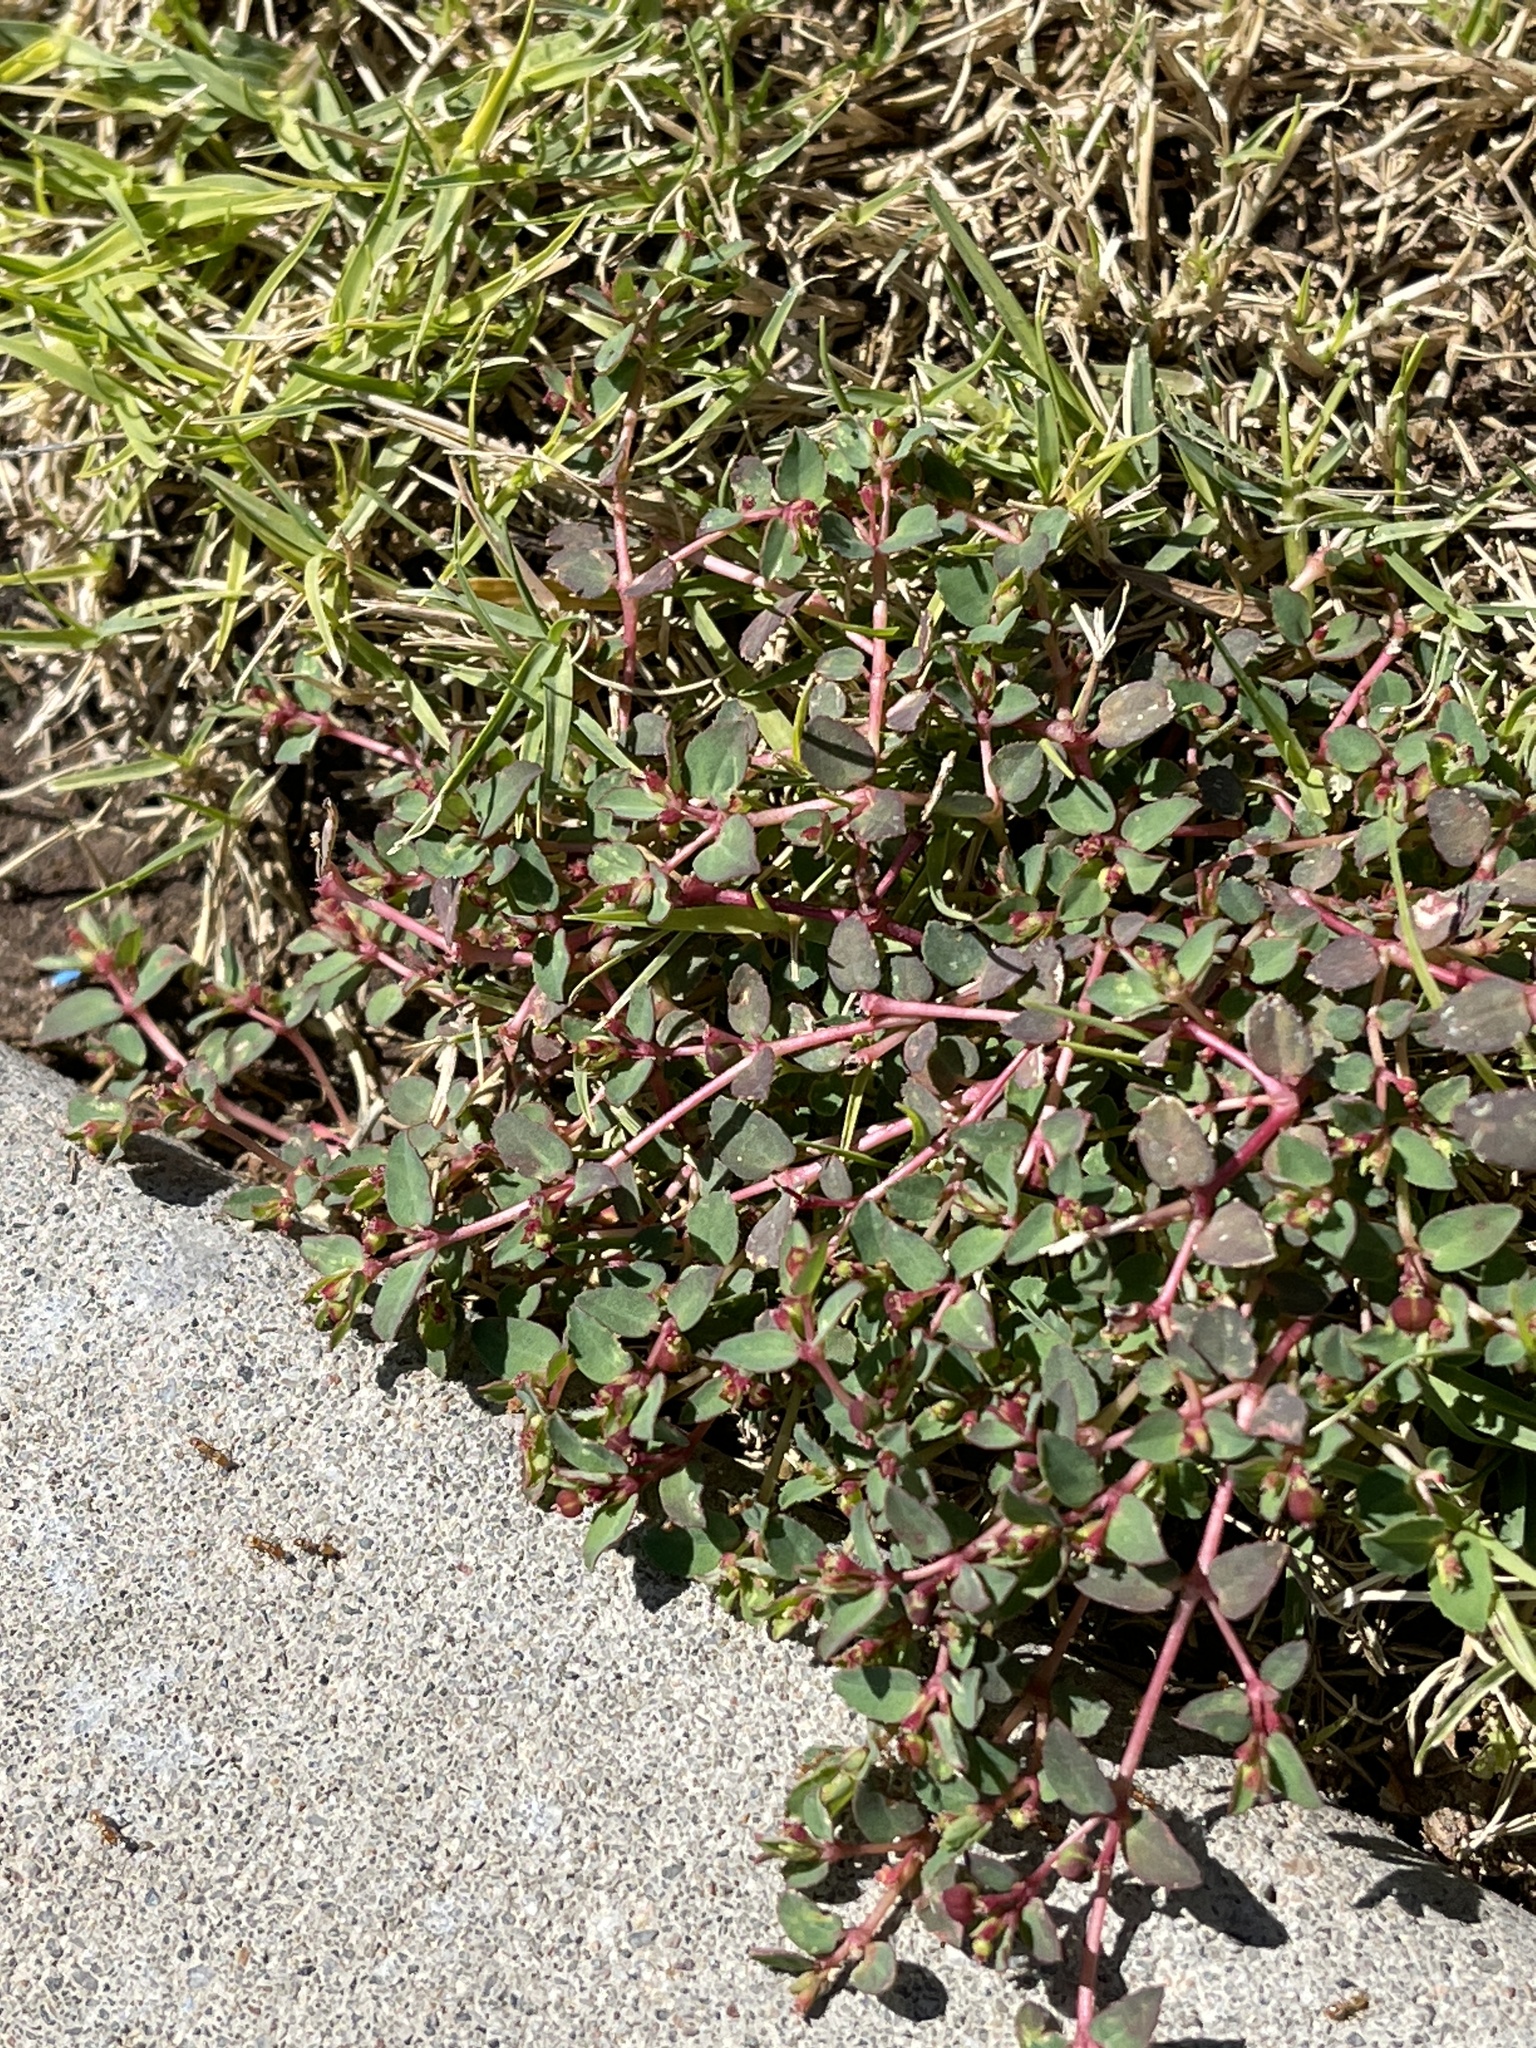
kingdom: Plantae
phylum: Tracheophyta
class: Magnoliopsida
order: Malpighiales
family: Euphorbiaceae
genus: Euphorbia
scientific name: Euphorbia vermiculata
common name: Hairy spurge
